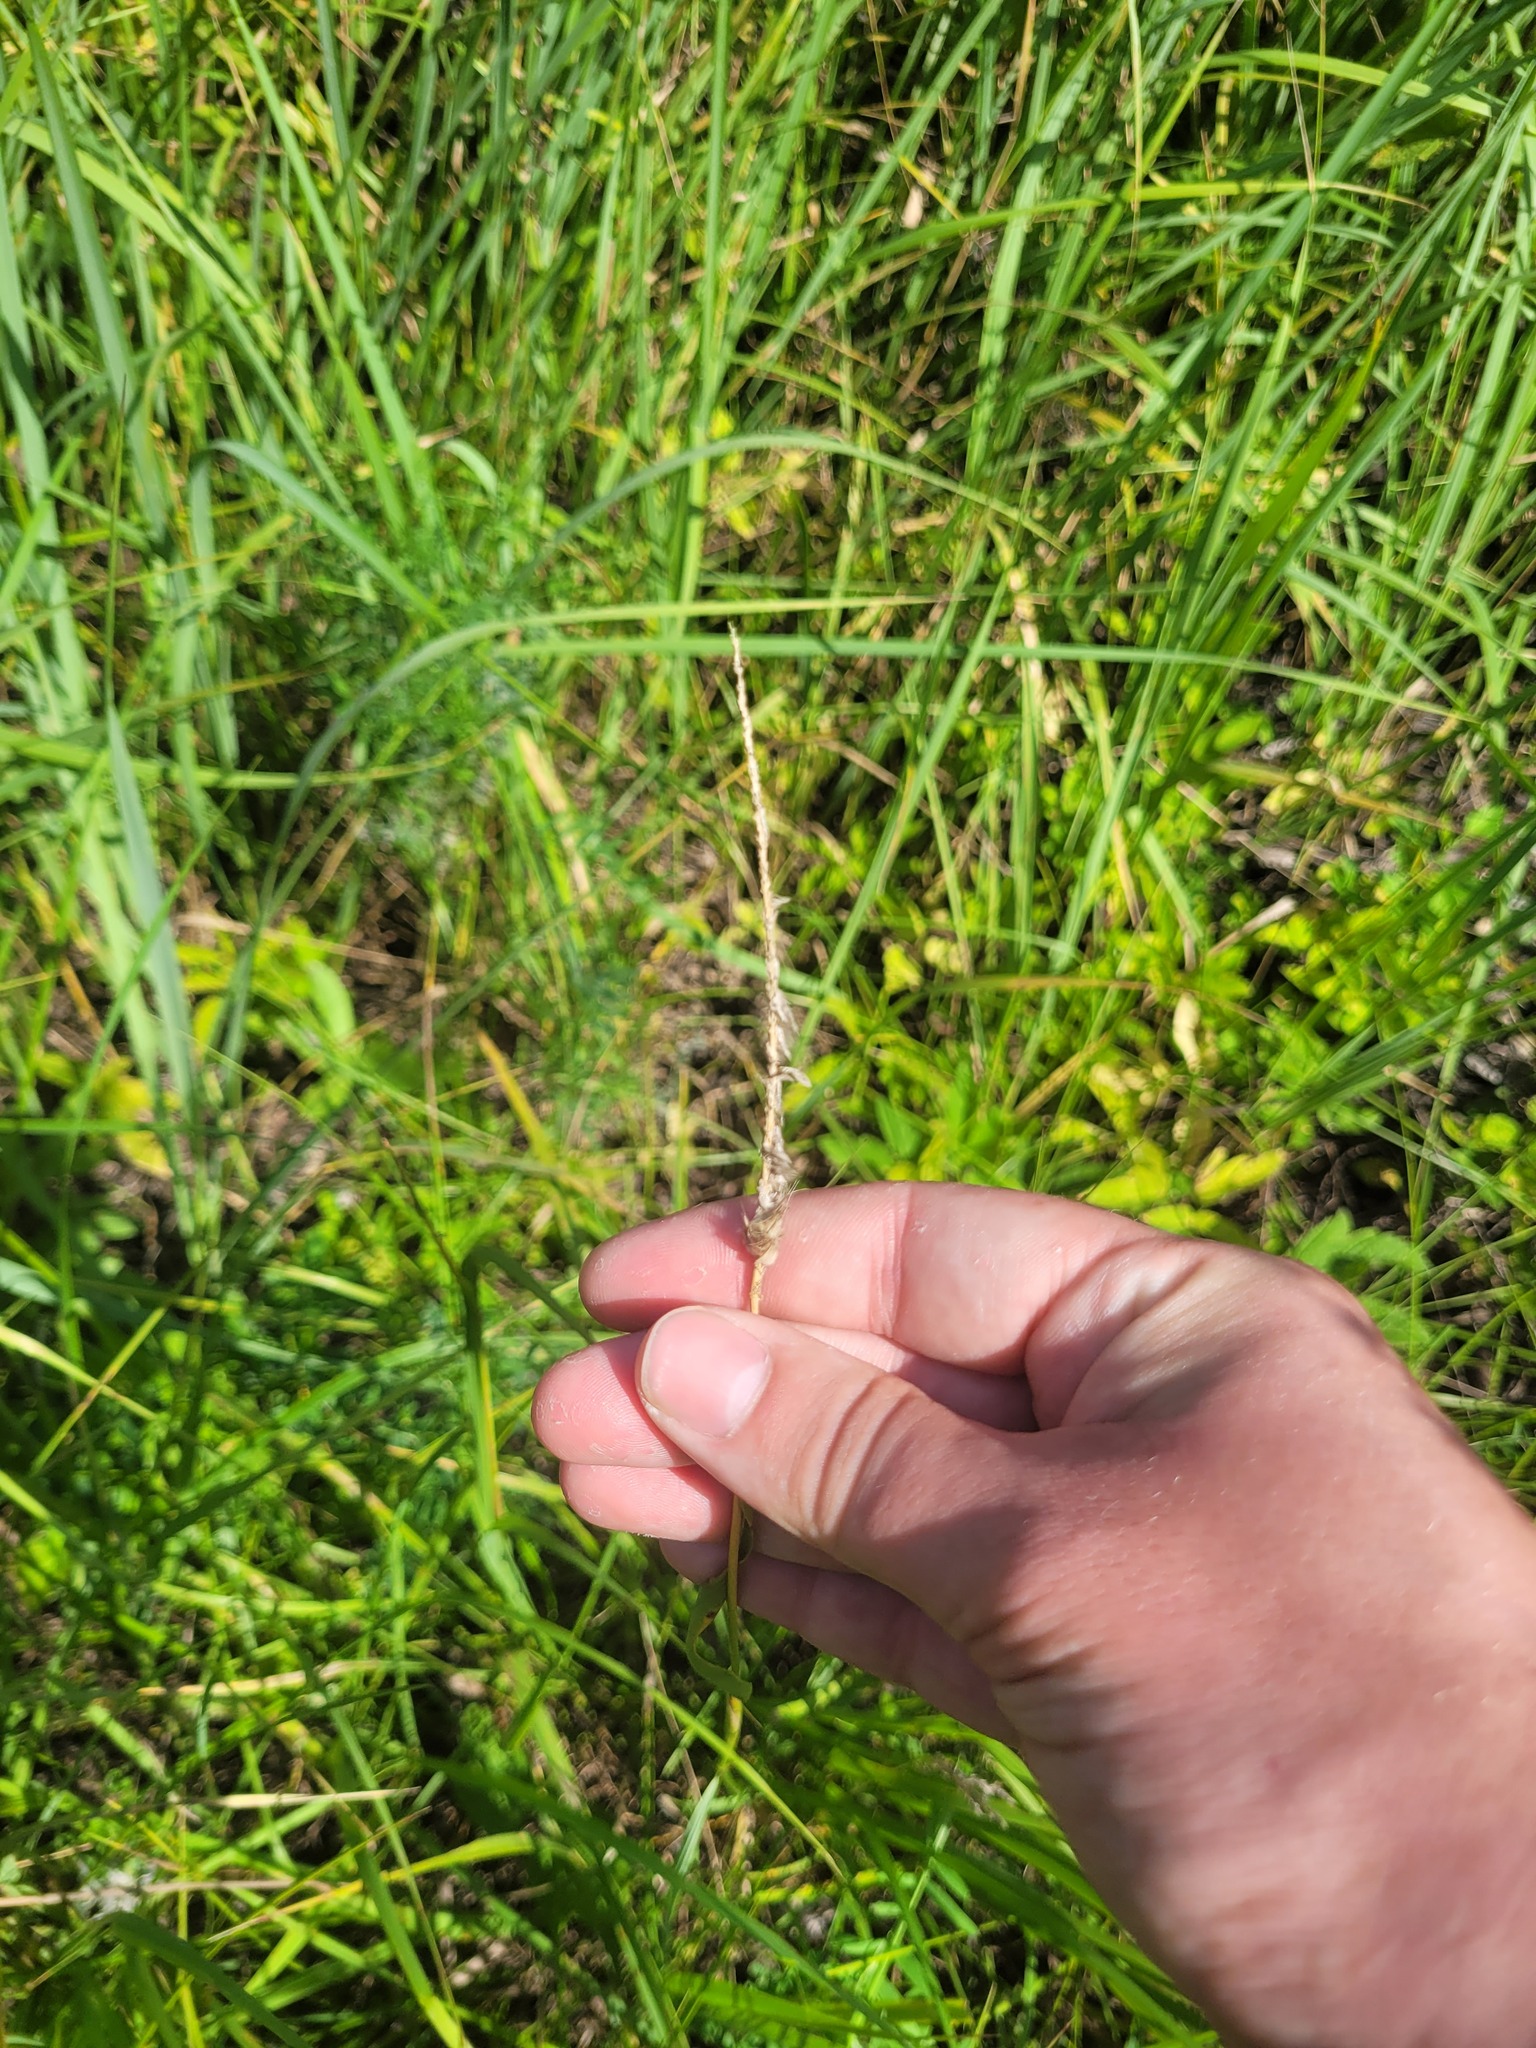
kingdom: Plantae
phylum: Tracheophyta
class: Liliopsida
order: Poales
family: Poaceae
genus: Alopecurus
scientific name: Alopecurus pratensis
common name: Meadow foxtail
